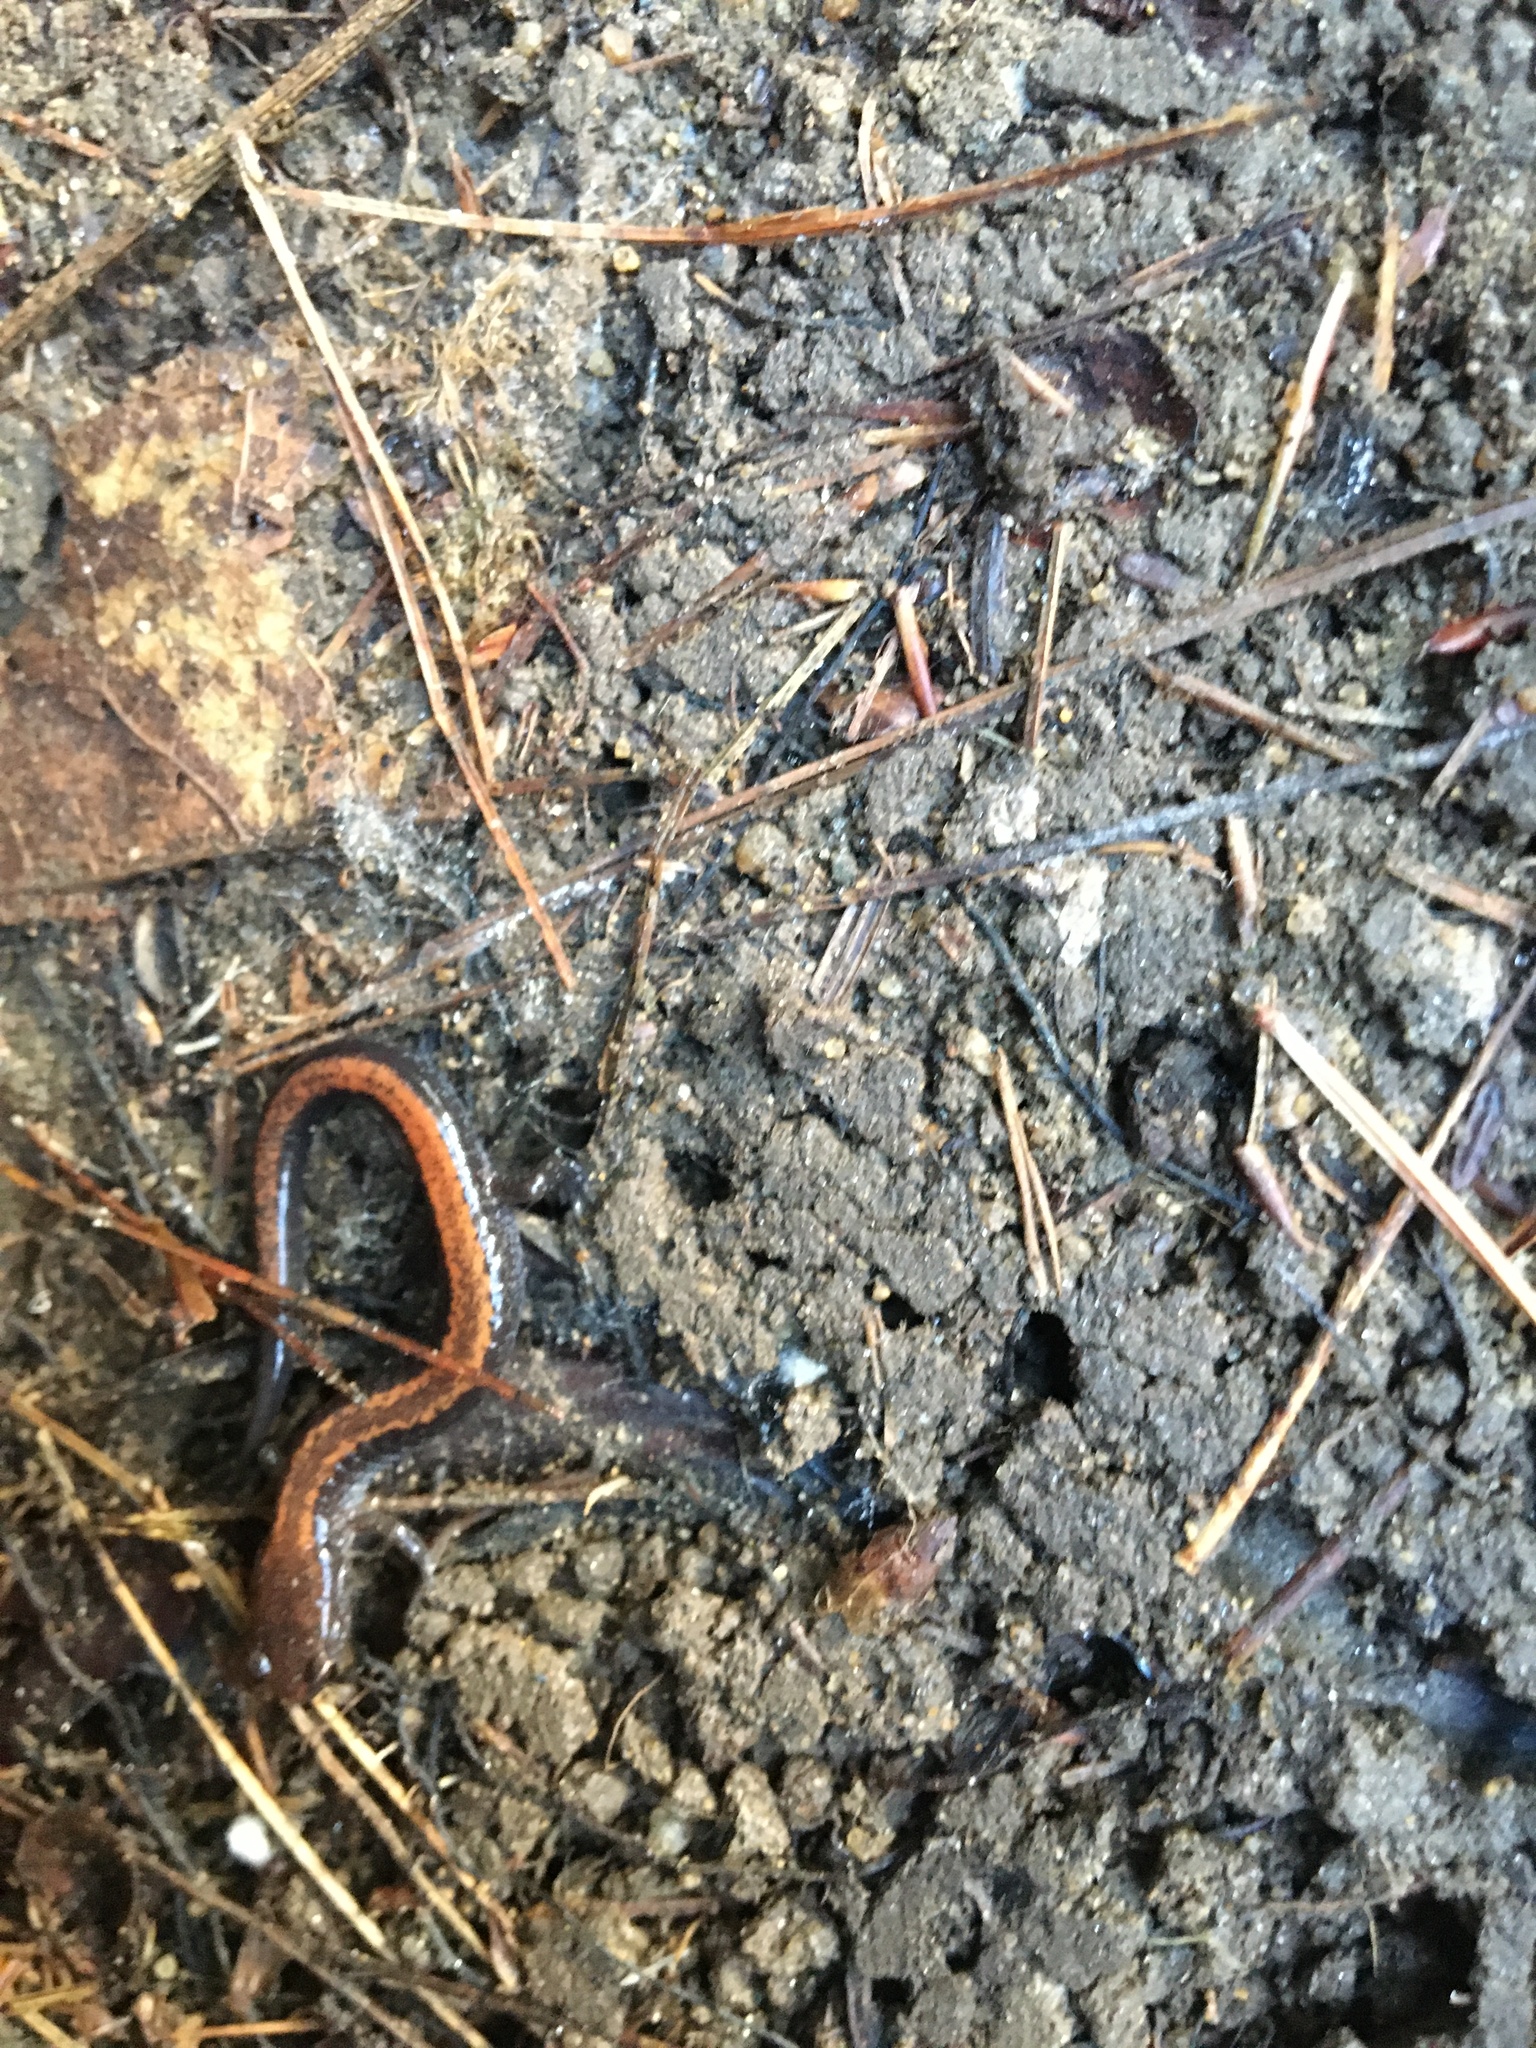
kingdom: Animalia
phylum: Chordata
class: Amphibia
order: Caudata
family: Plethodontidae
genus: Plethodon
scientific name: Plethodon cinereus
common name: Redback salamander
